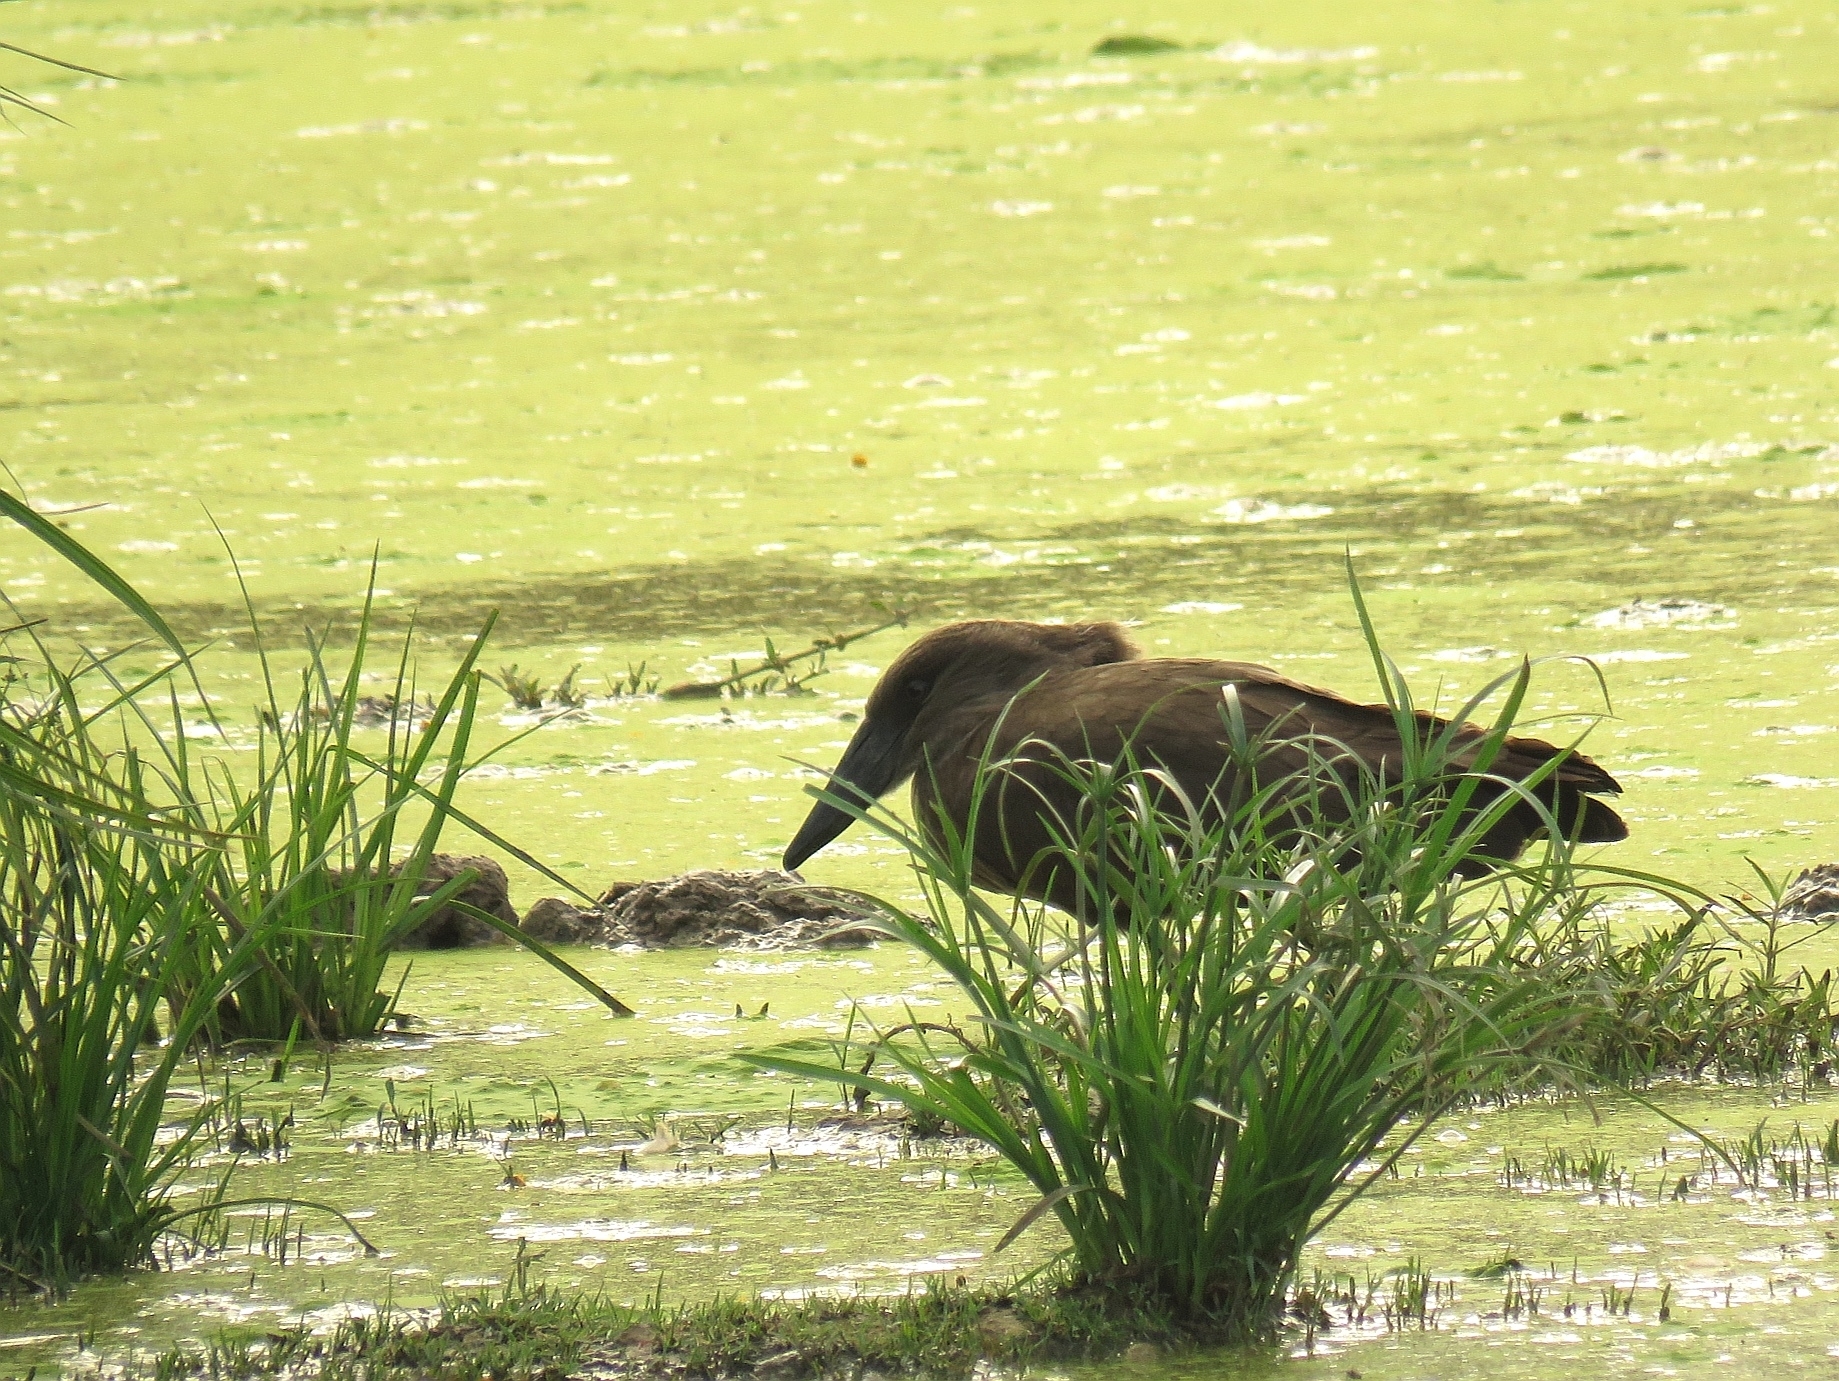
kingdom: Animalia
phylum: Chordata
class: Aves
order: Pelecaniformes
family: Scopidae
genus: Scopus
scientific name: Scopus umbretta
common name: Hamerkop
